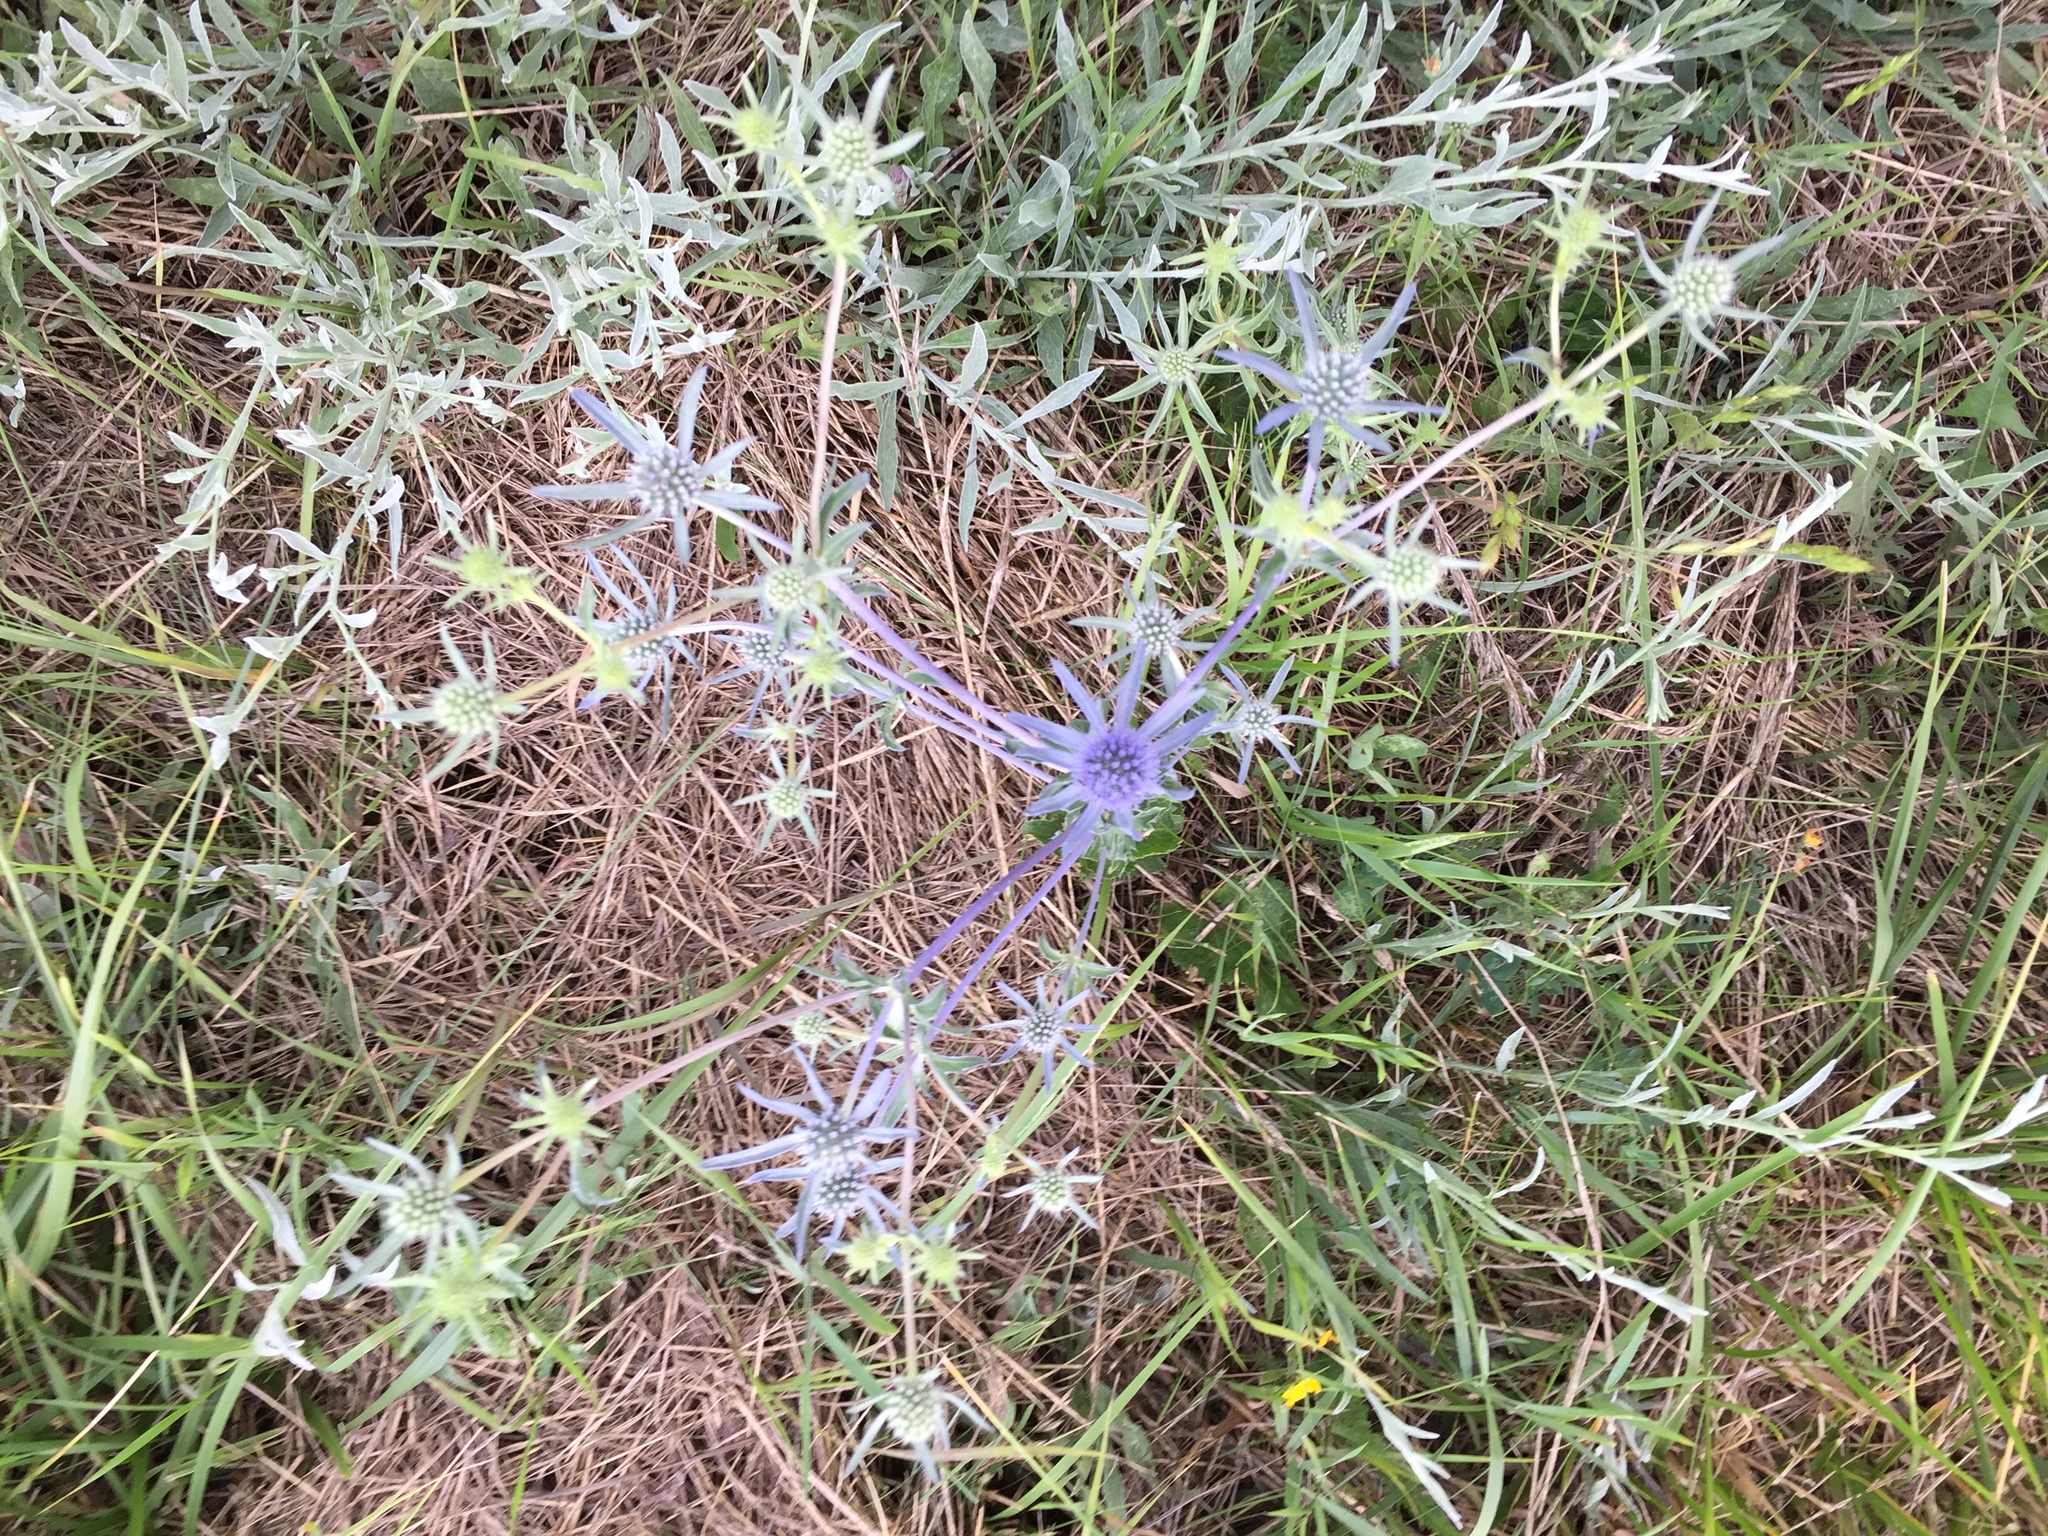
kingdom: Plantae
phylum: Tracheophyta
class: Magnoliopsida
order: Apiales
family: Apiaceae
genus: Eryngium
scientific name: Eryngium planum
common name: Blue eryngo
